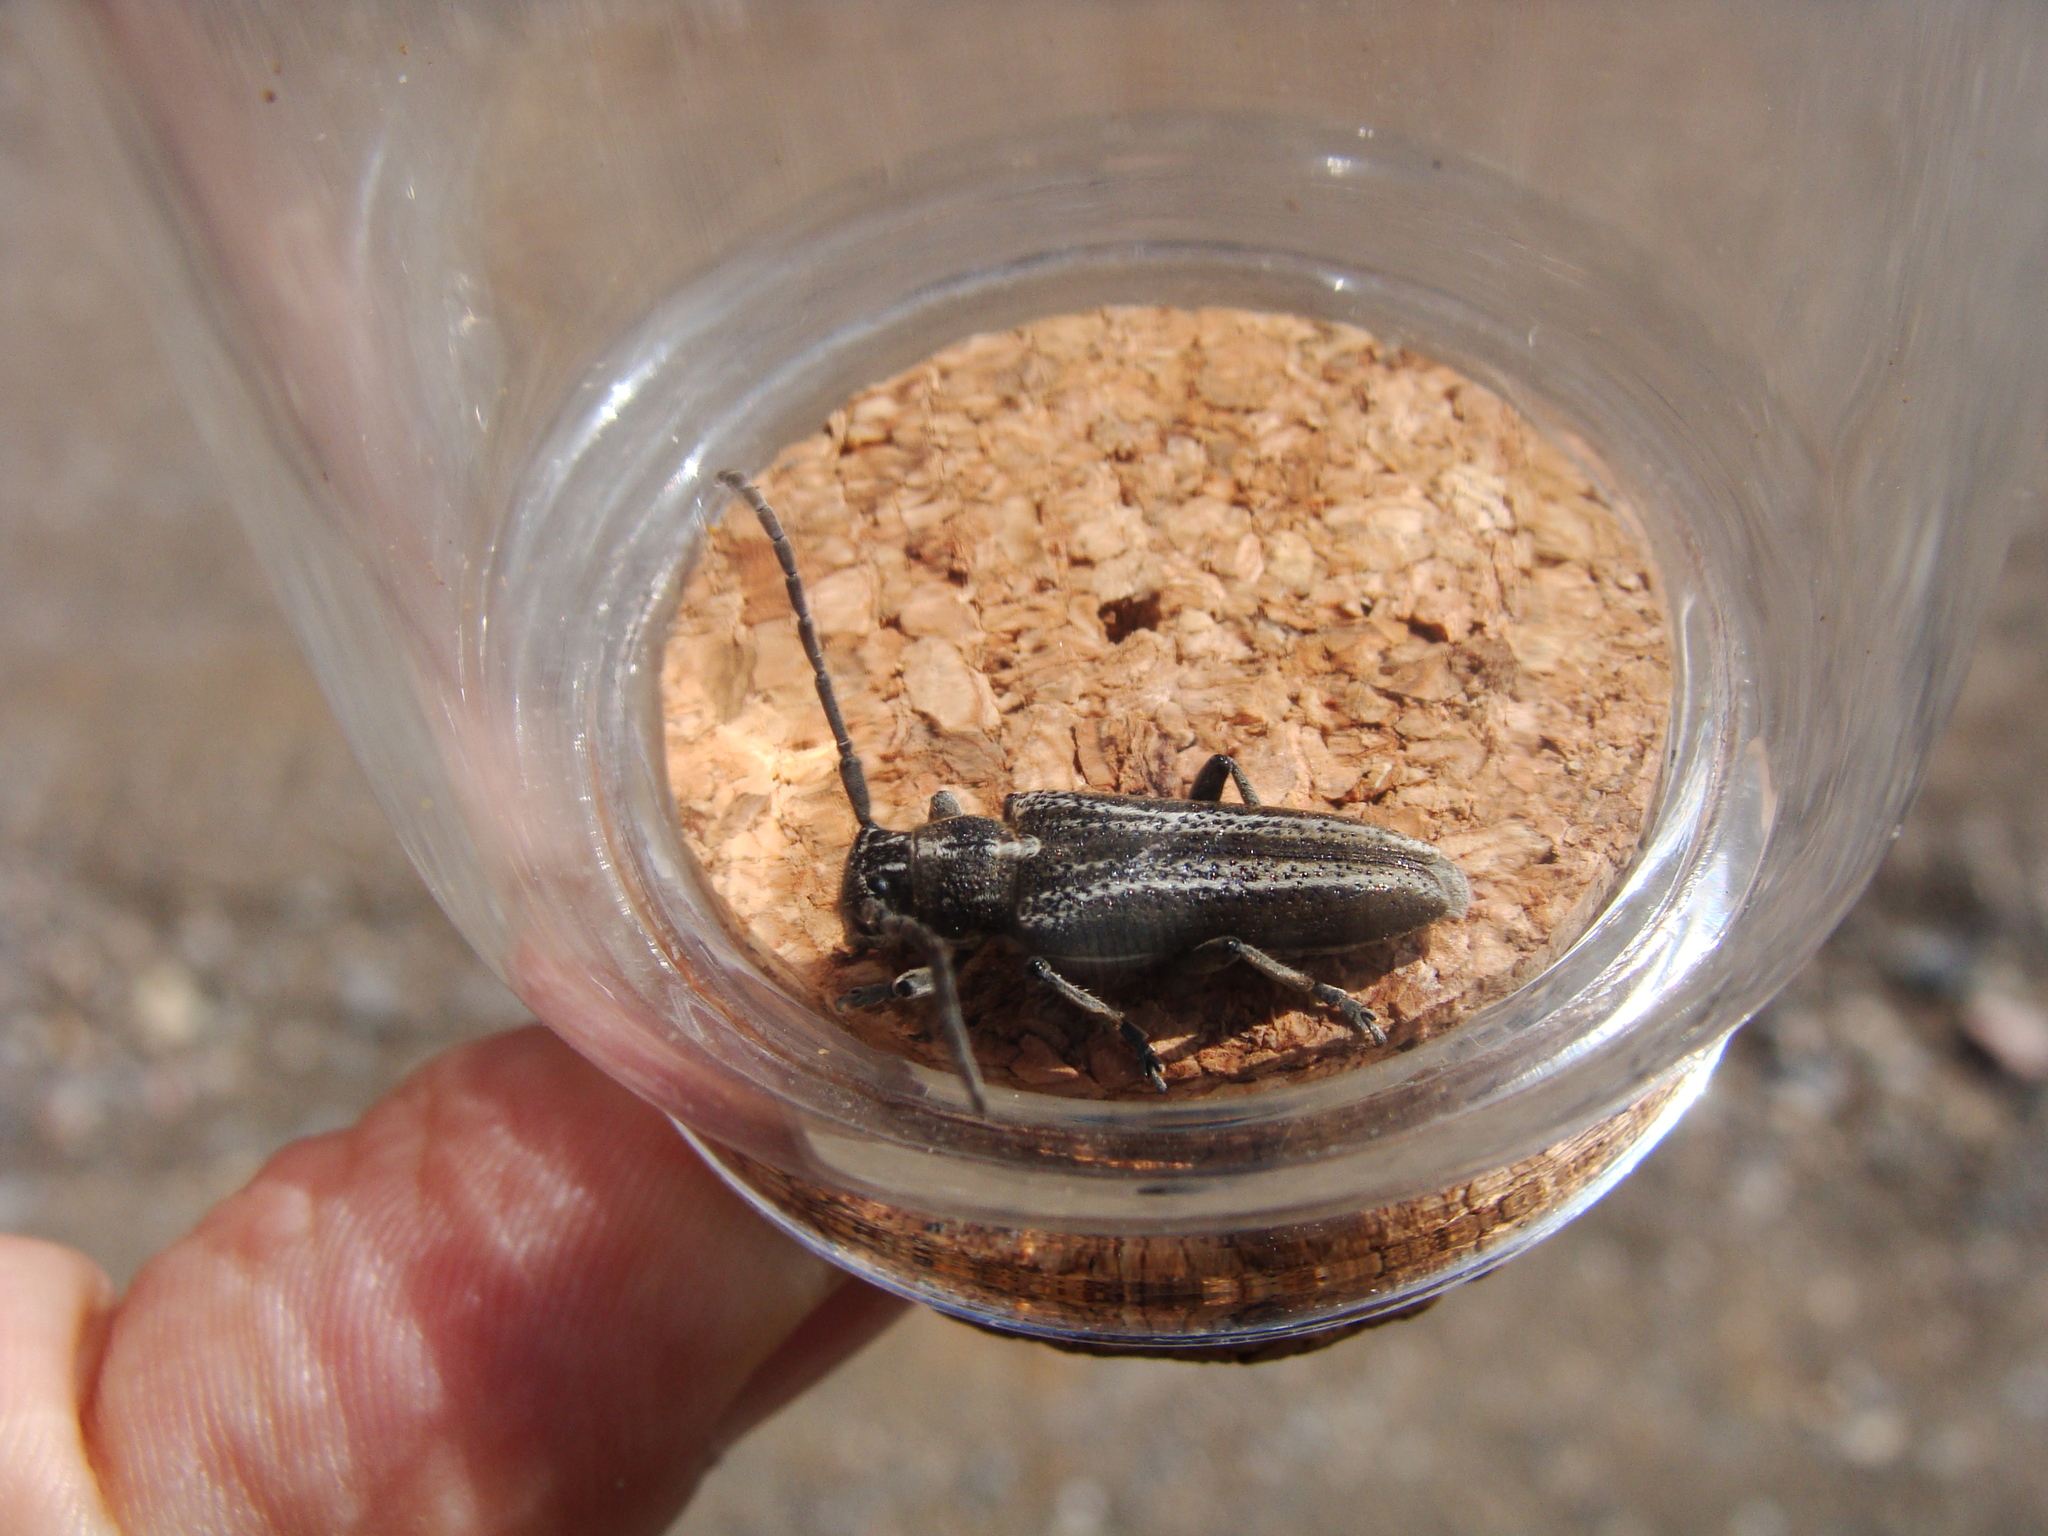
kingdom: Animalia
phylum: Arthropoda
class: Insecta
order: Coleoptera
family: Cerambycidae
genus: Conizonia
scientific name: Conizonia detrita
